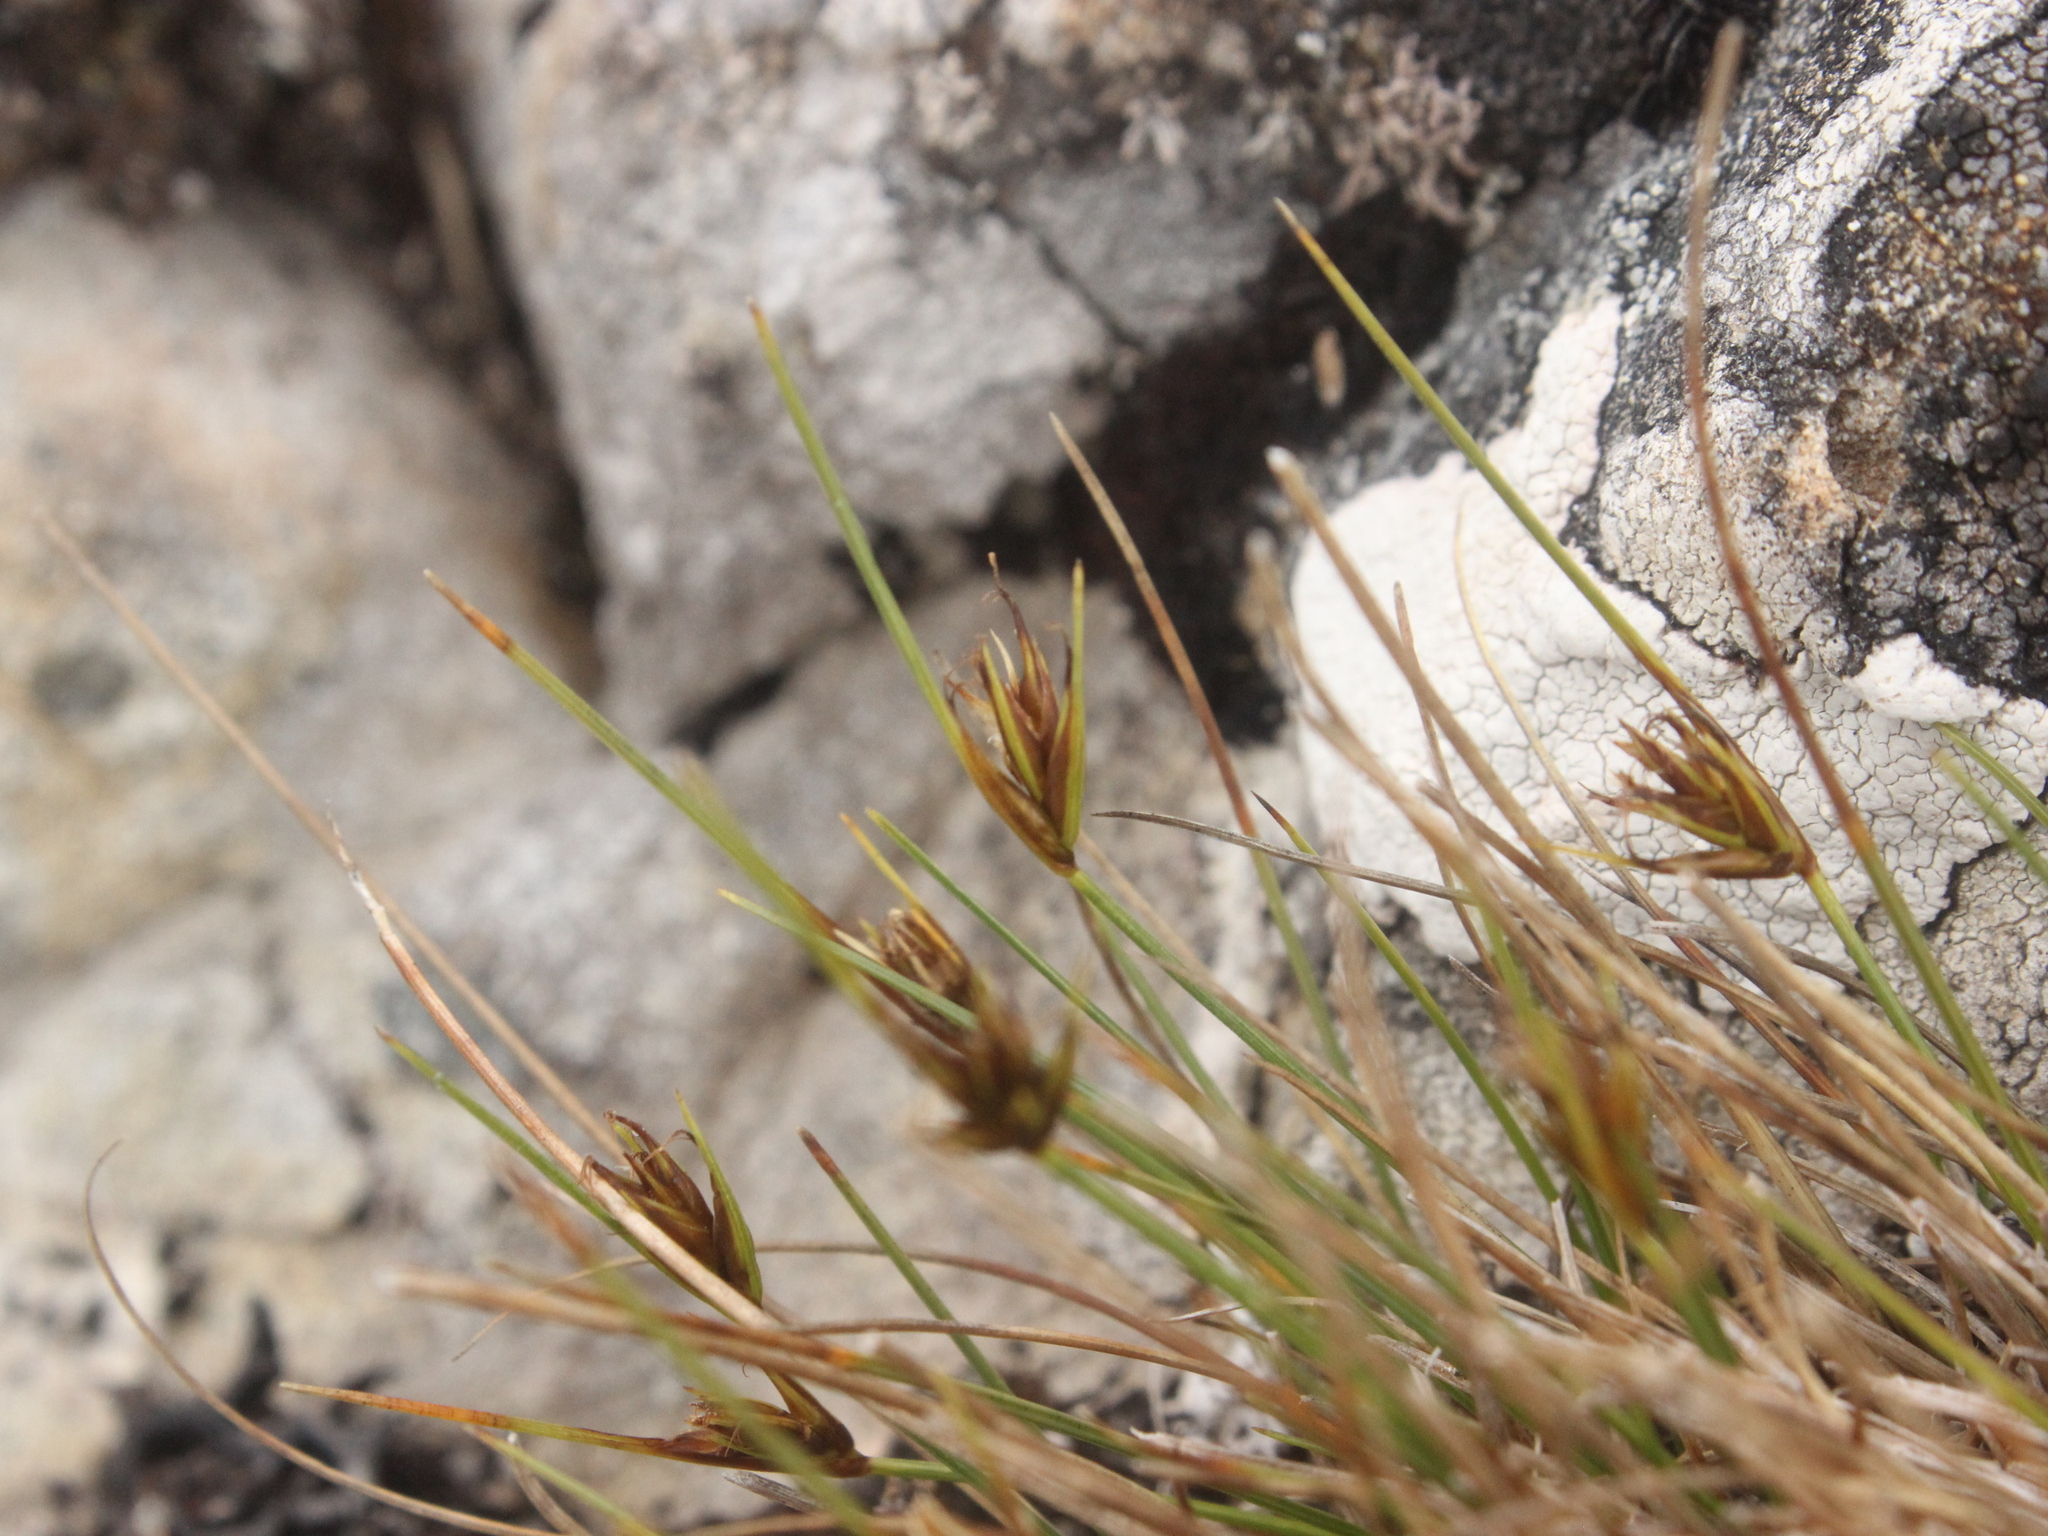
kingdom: Plantae
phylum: Tracheophyta
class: Liliopsida
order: Poales
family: Cyperaceae
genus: Carex
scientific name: Carex acicularis
